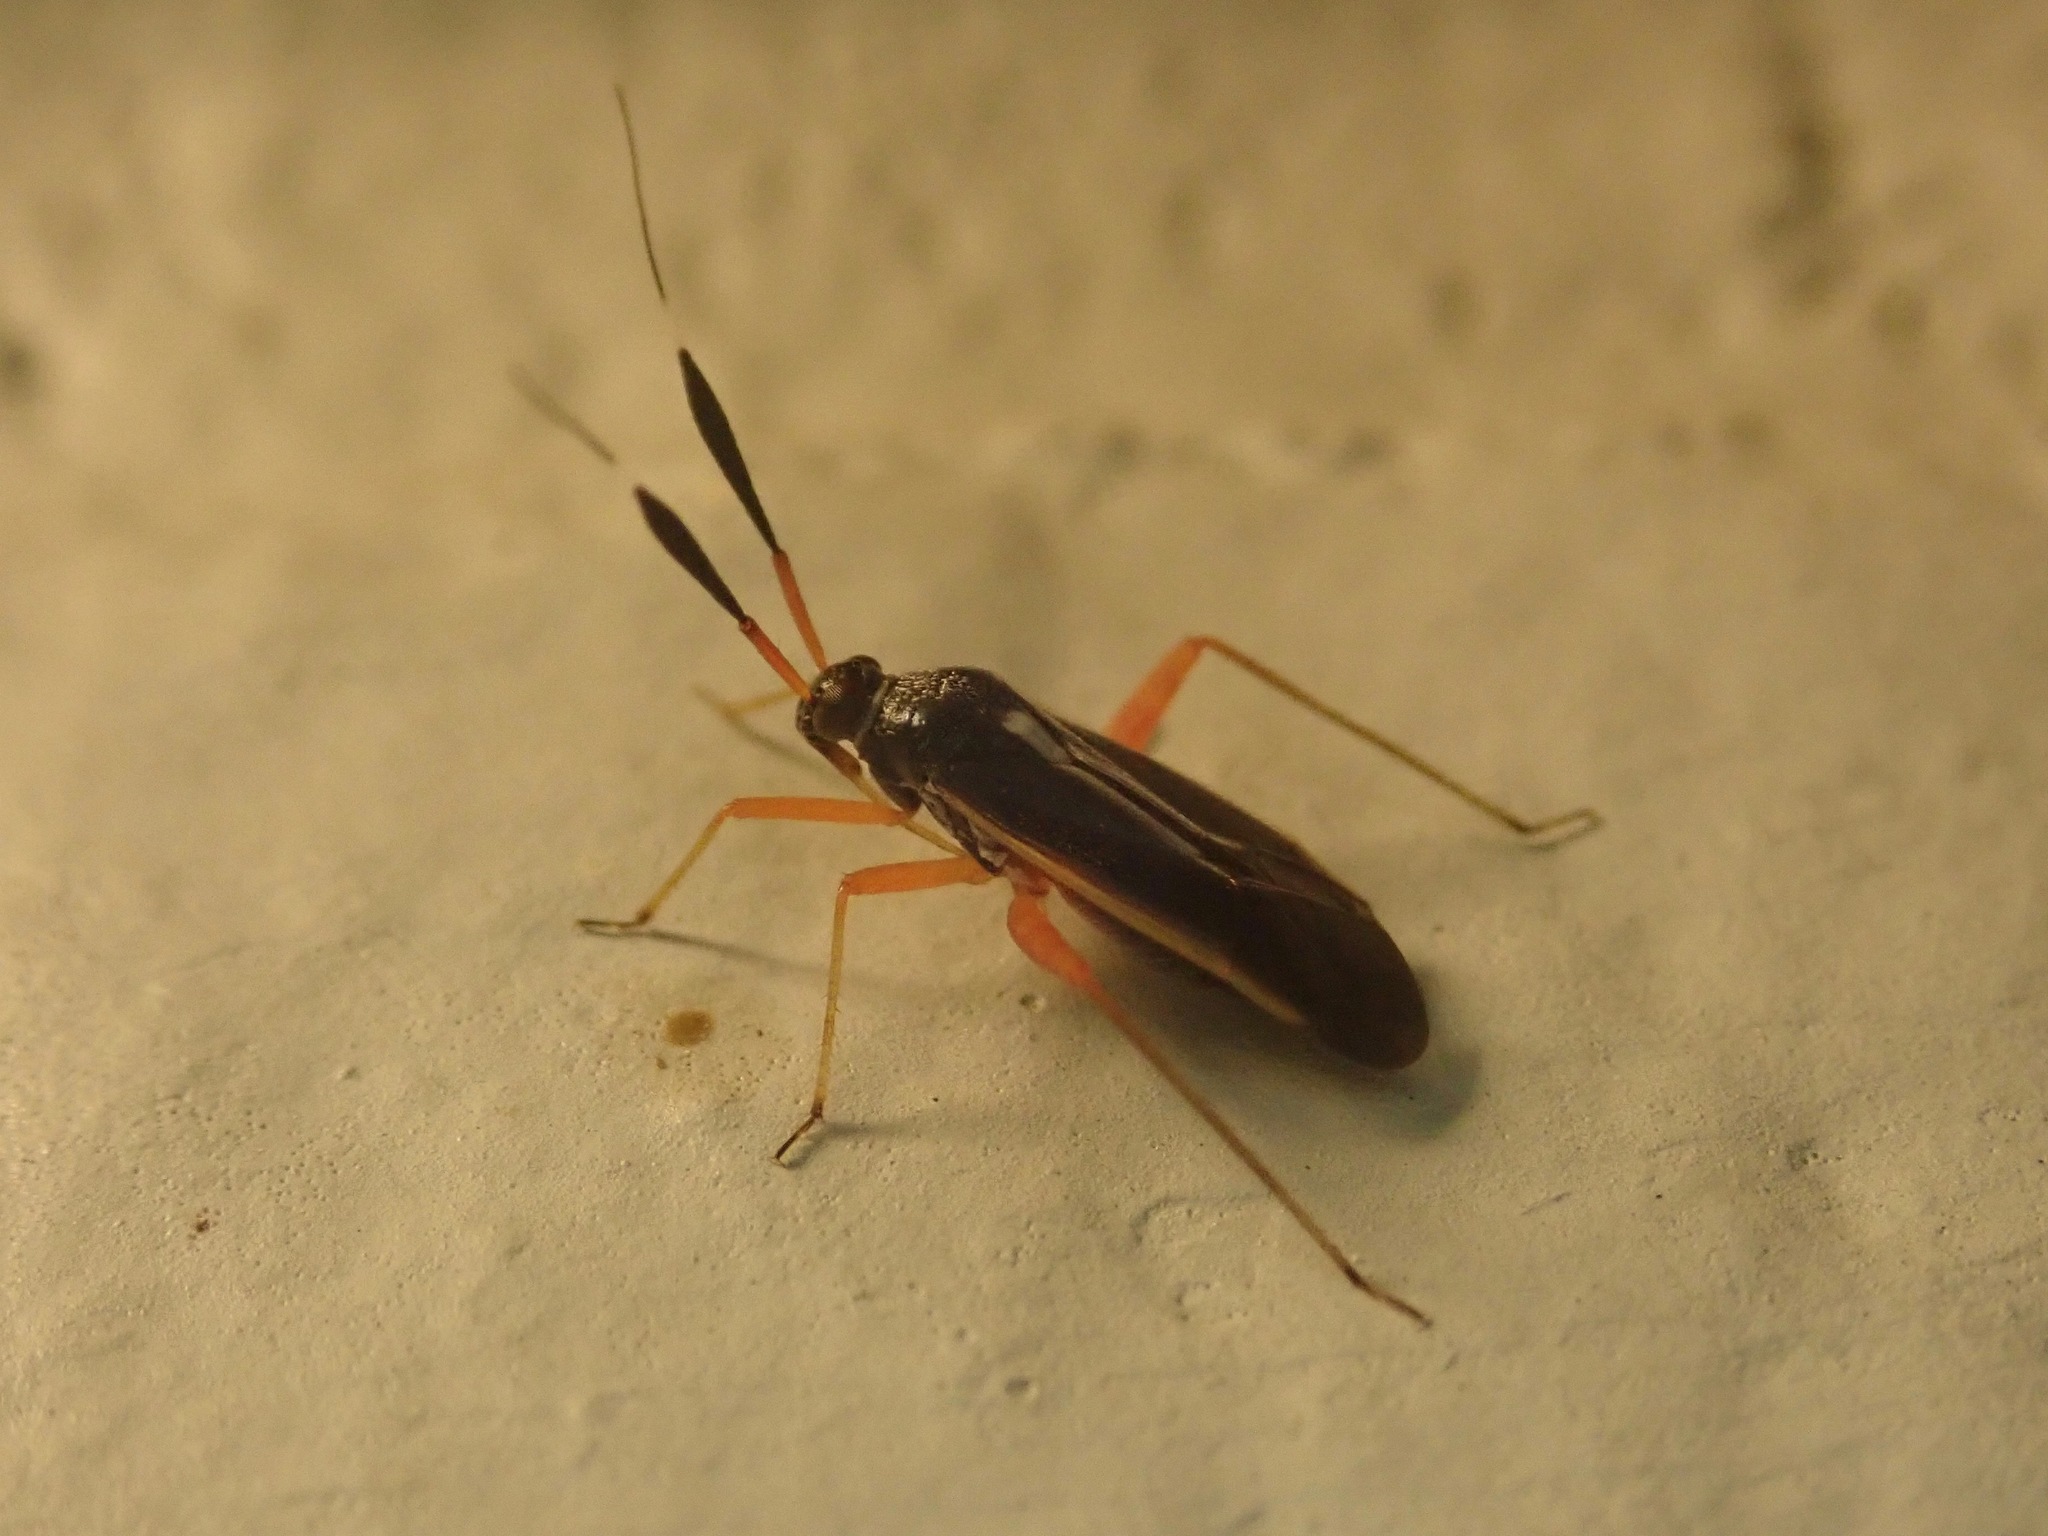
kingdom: Animalia
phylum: Arthropoda
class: Insecta
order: Hemiptera
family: Miridae
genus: Garganus
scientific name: Garganus fusiformis
